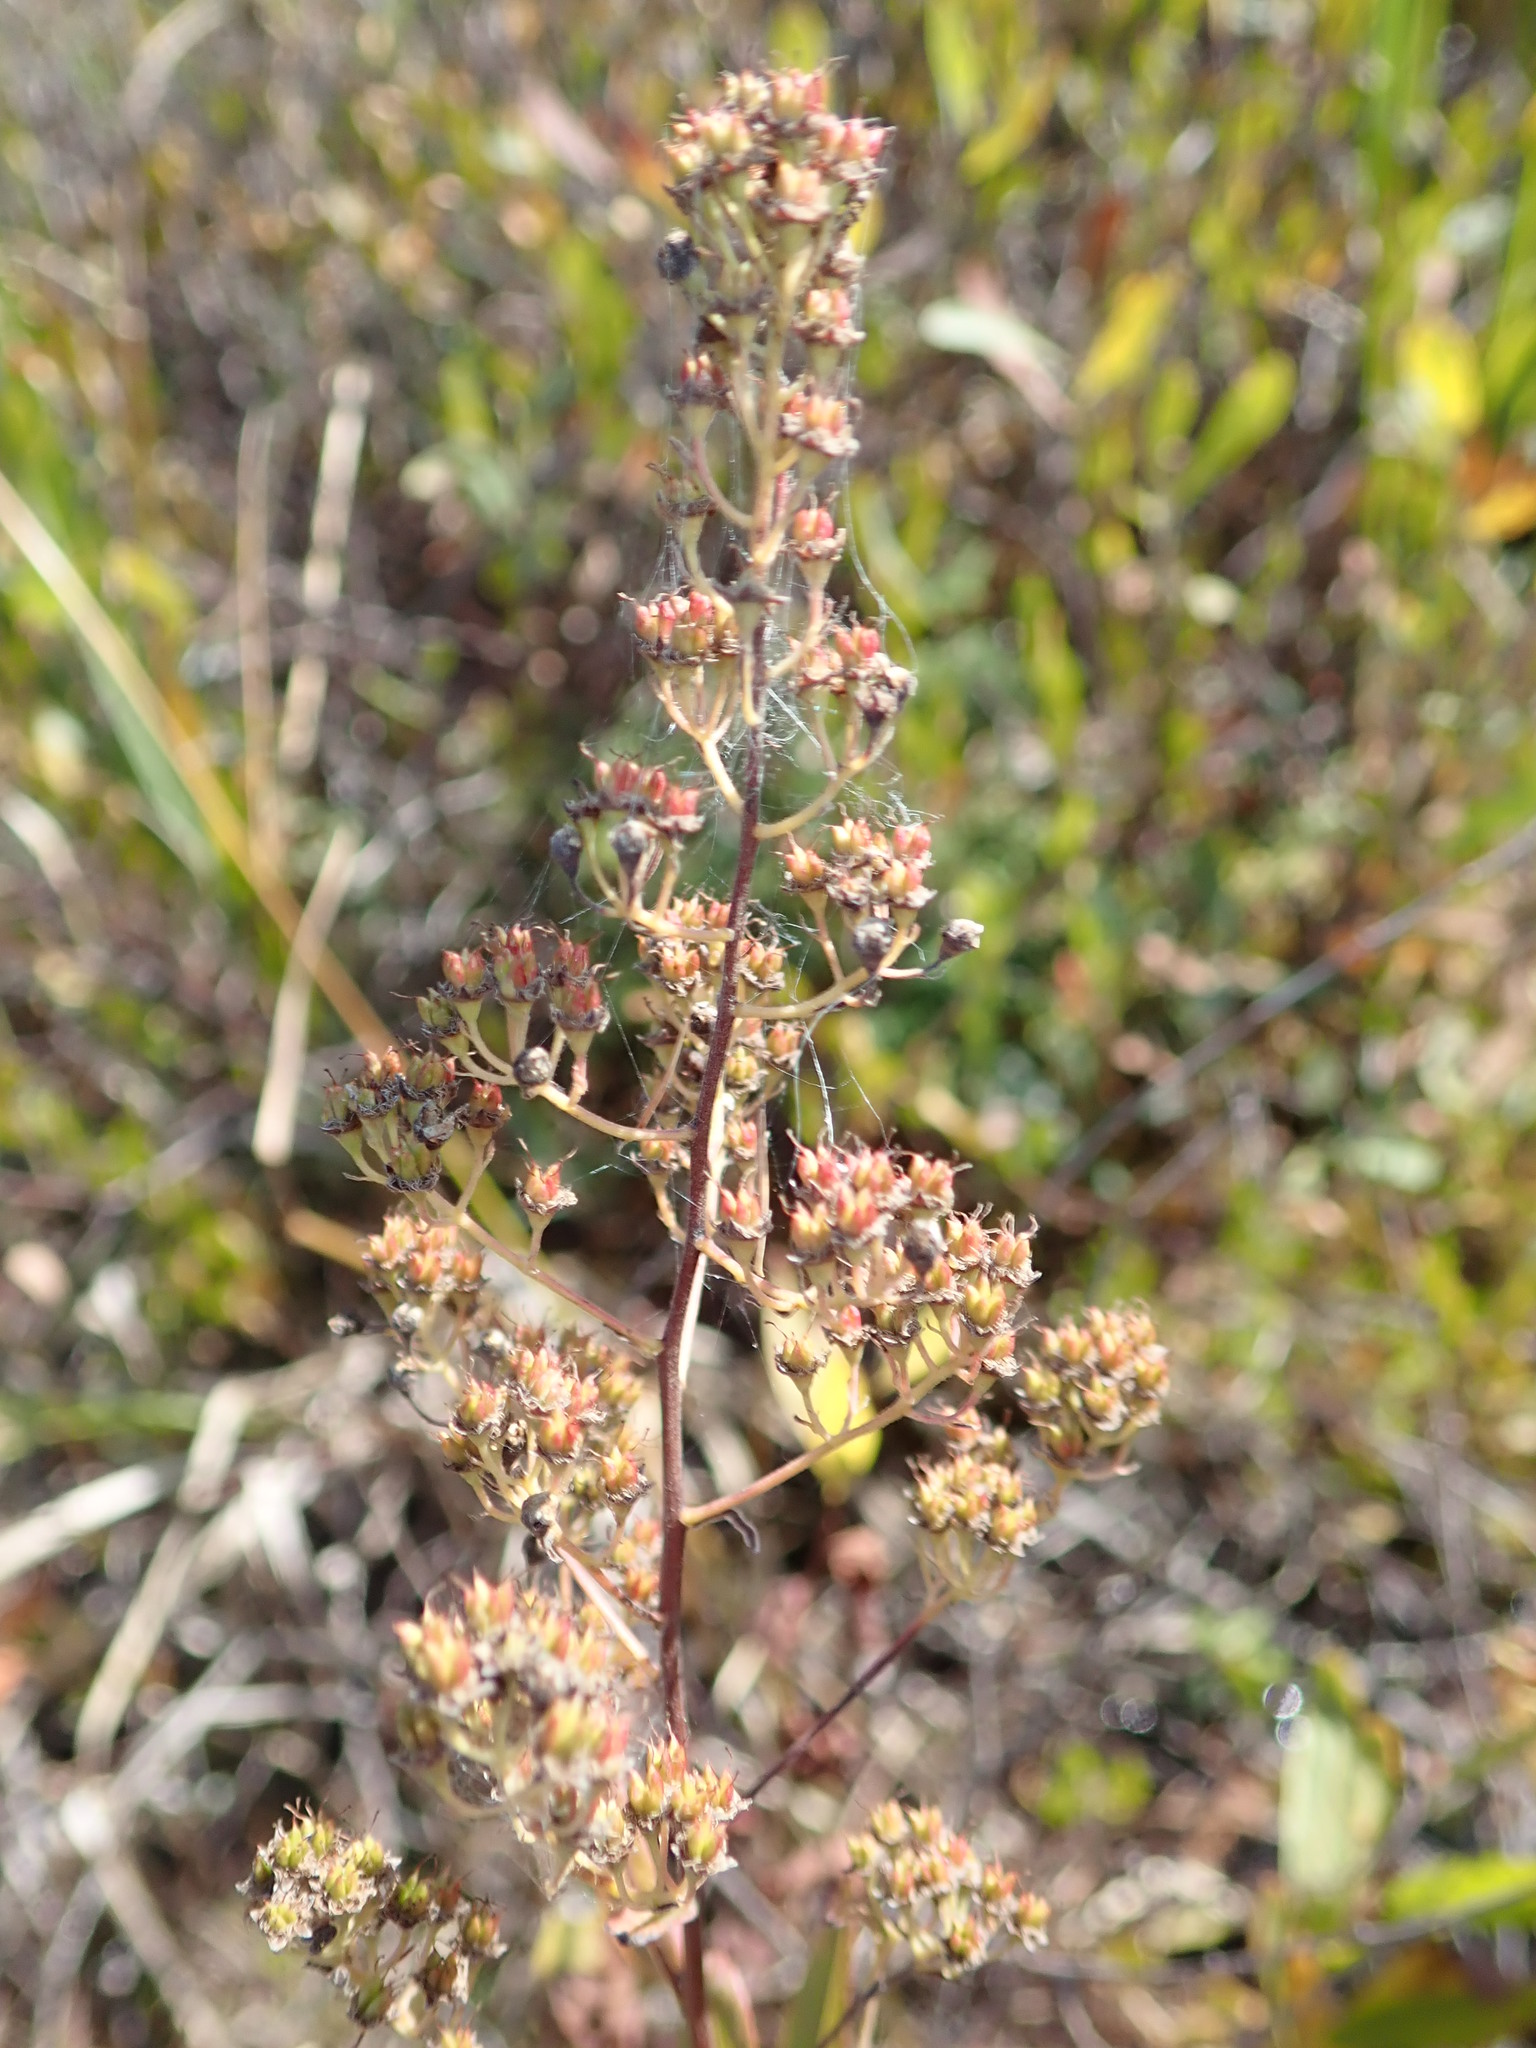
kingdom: Plantae
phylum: Tracheophyta
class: Magnoliopsida
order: Rosales
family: Rosaceae
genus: Spiraea
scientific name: Spiraea alba
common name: Pale bridewort
